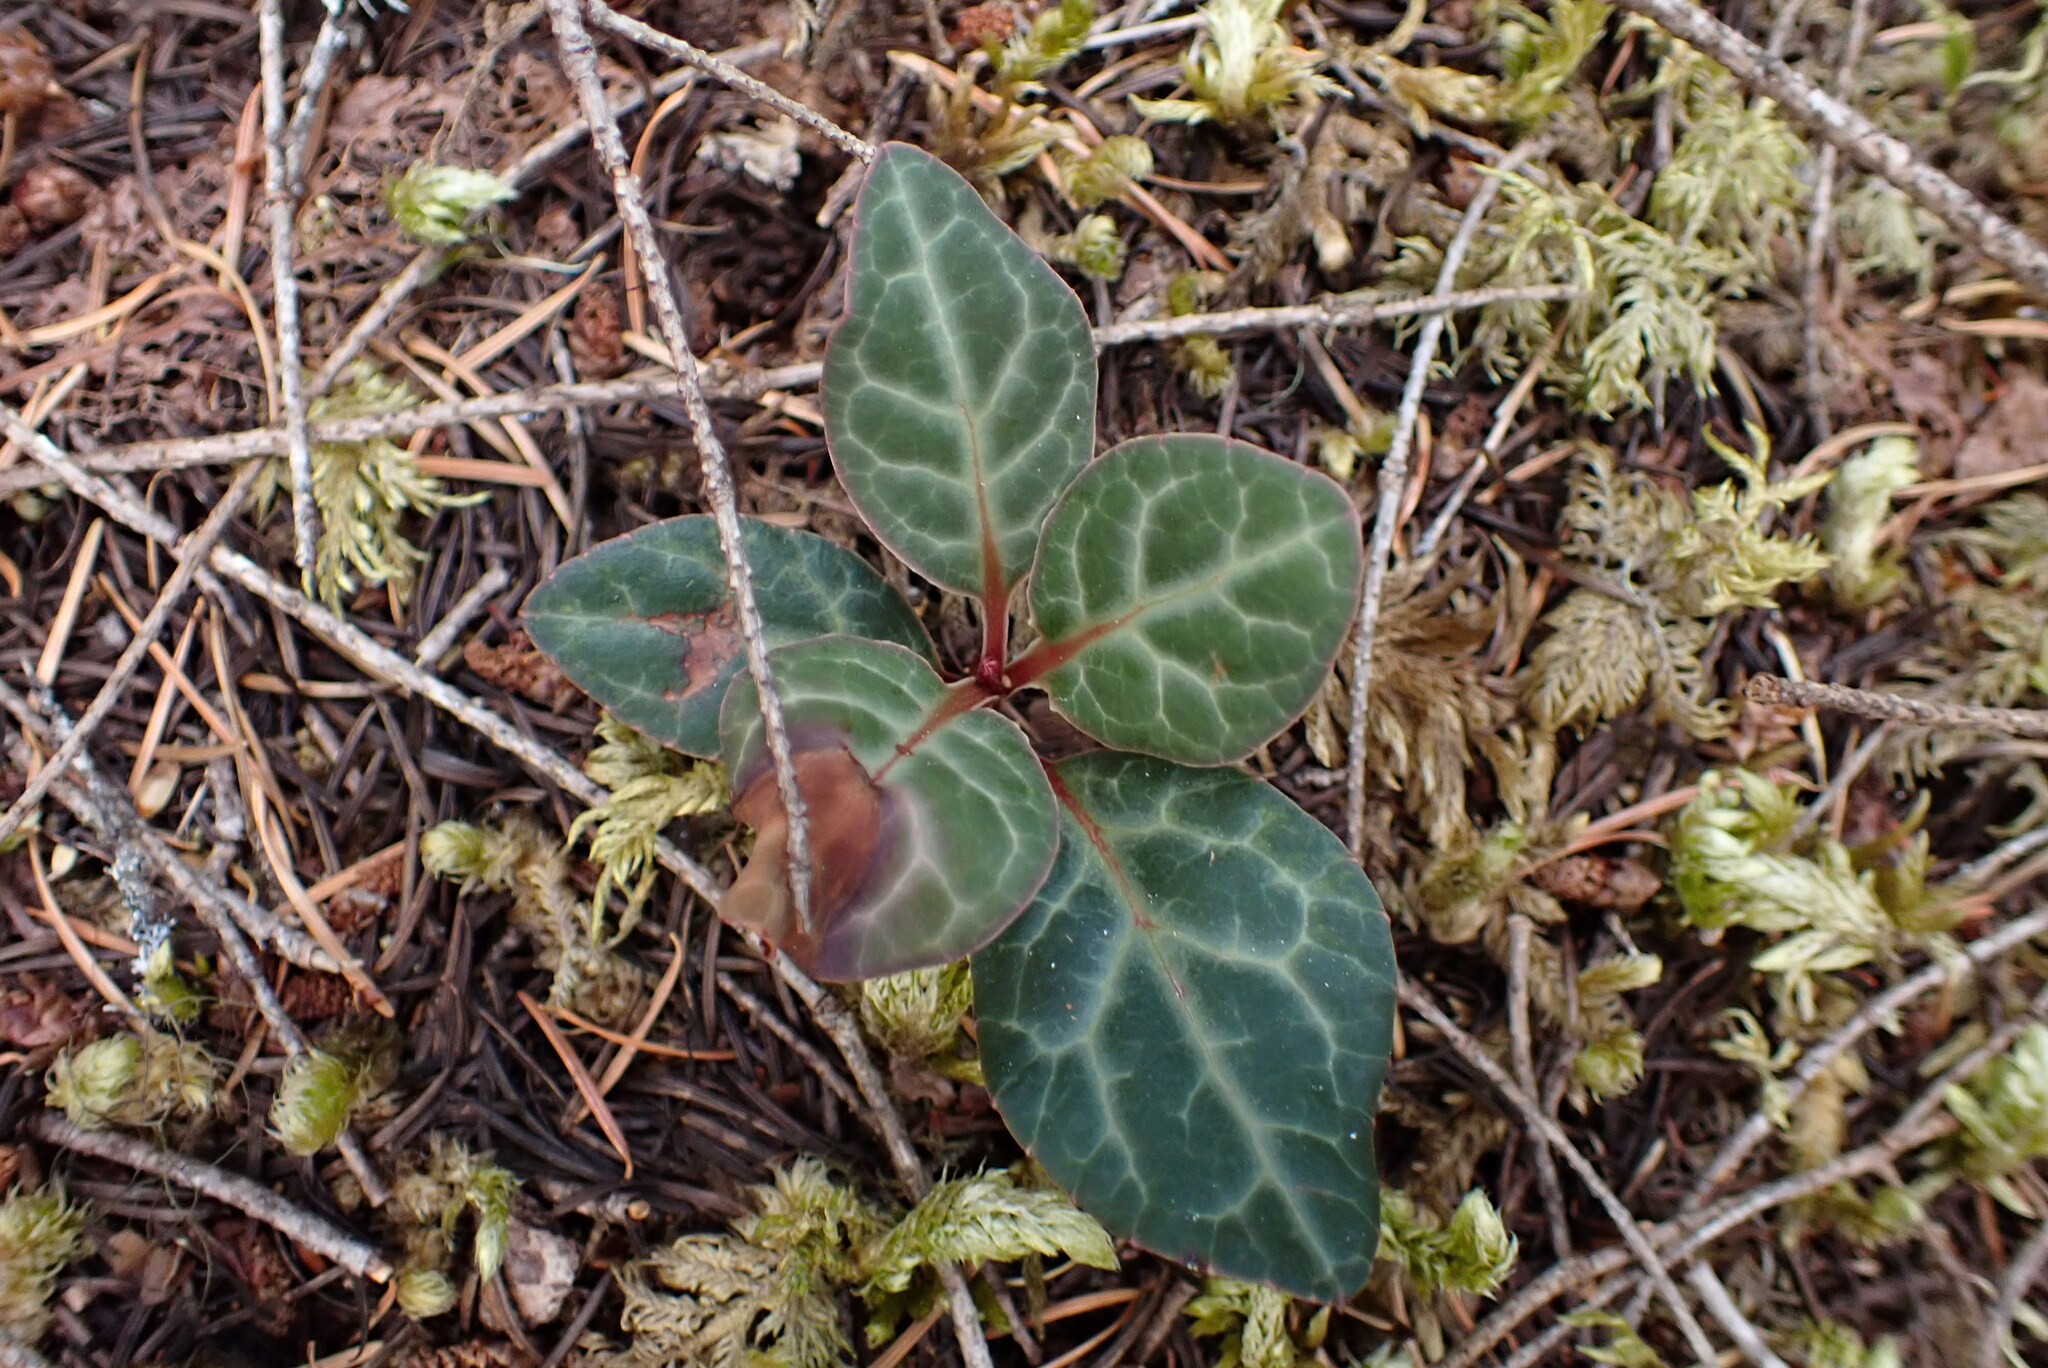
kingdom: Plantae
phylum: Tracheophyta
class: Magnoliopsida
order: Ericales
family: Ericaceae
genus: Pyrola
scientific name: Pyrola picta
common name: White-vein wintergreen
